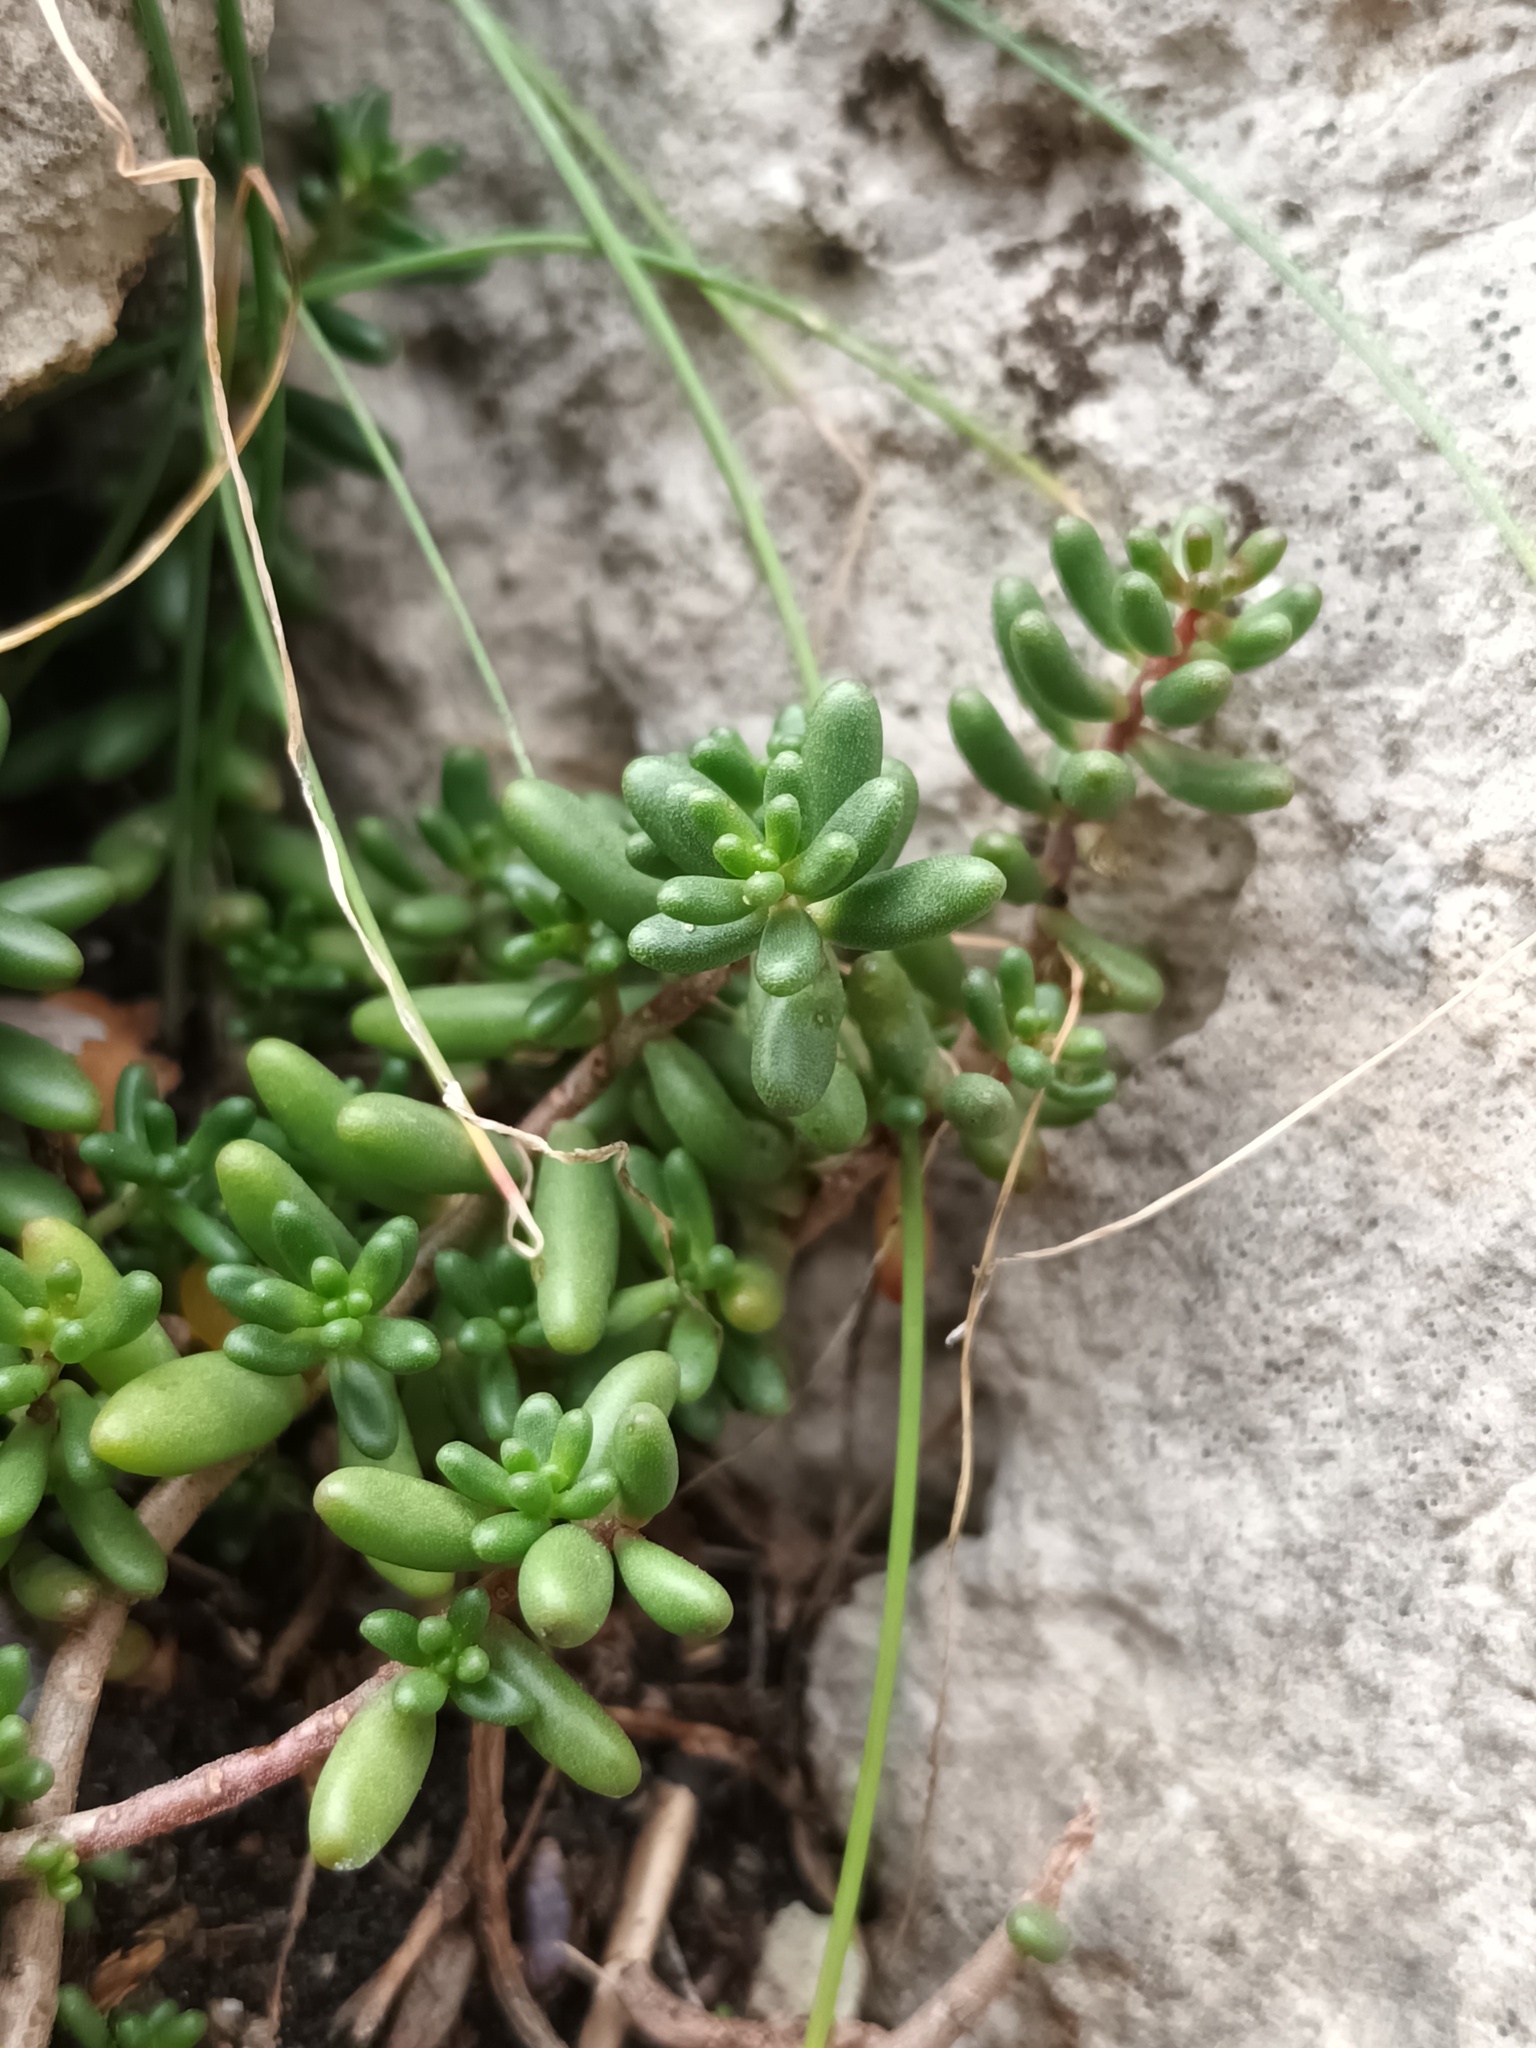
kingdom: Plantae
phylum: Tracheophyta
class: Magnoliopsida
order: Saxifragales
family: Crassulaceae
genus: Sedum
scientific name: Sedum album
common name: White stonecrop
